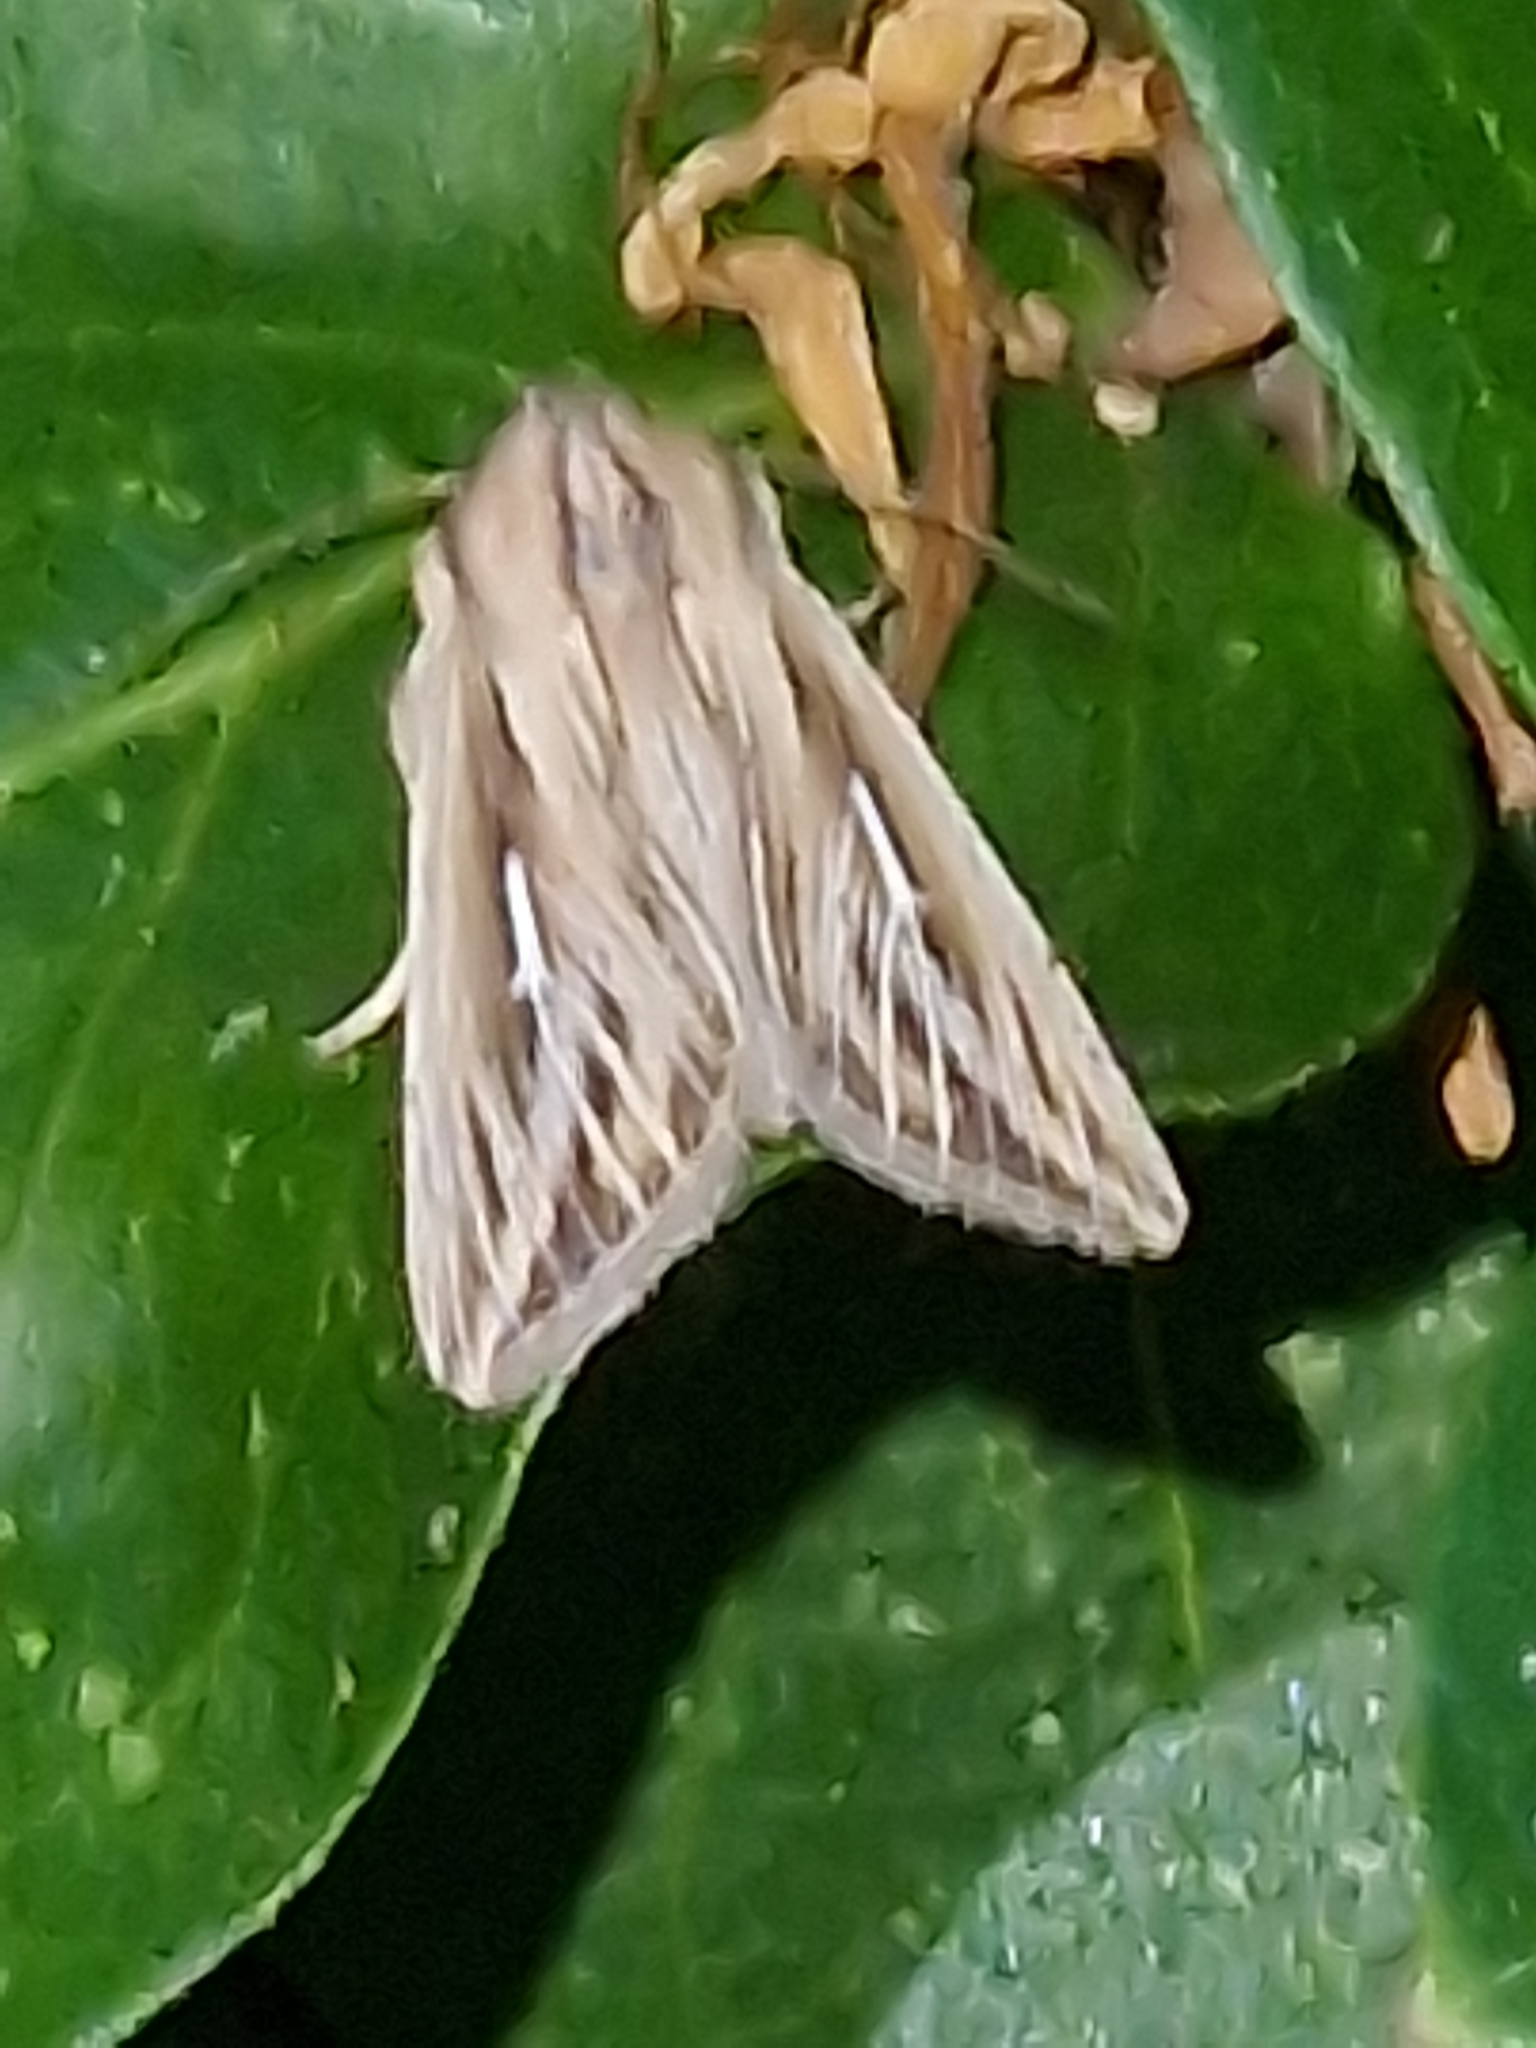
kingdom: Animalia
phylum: Arthropoda
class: Insecta
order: Lepidoptera
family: Noctuidae
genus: Mythimna
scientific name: Mythimna l-album
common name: L-album wainscot
